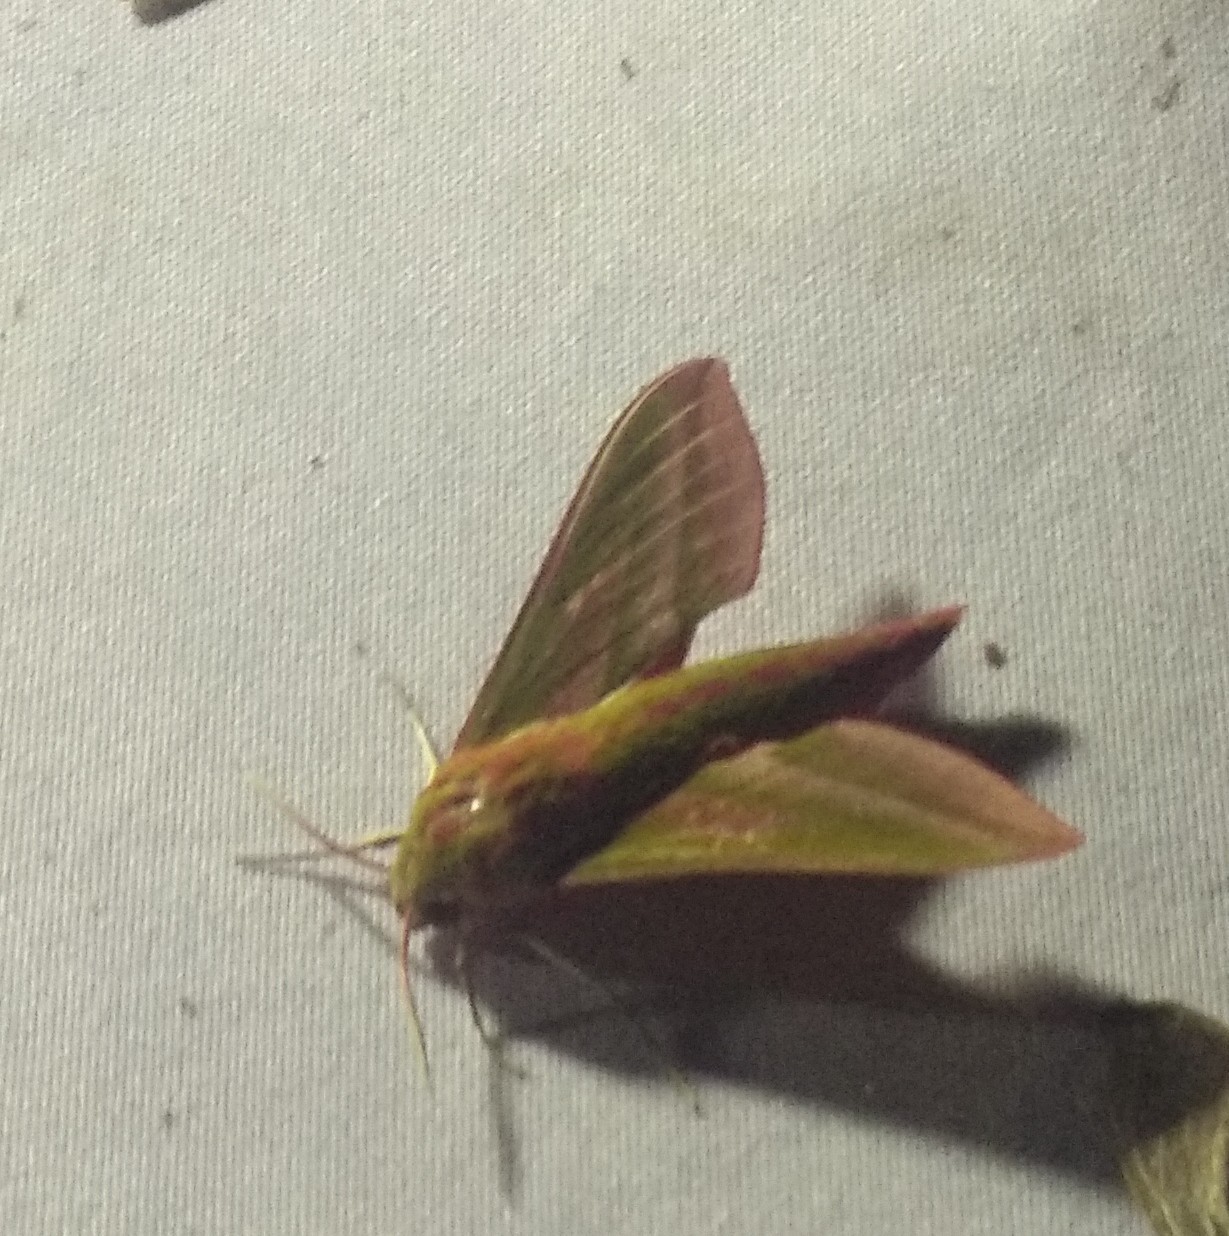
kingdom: Animalia
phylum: Arthropoda
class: Insecta
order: Lepidoptera
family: Sphingidae
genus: Deilephila
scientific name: Deilephila elpenor
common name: Elephant hawk-moth
